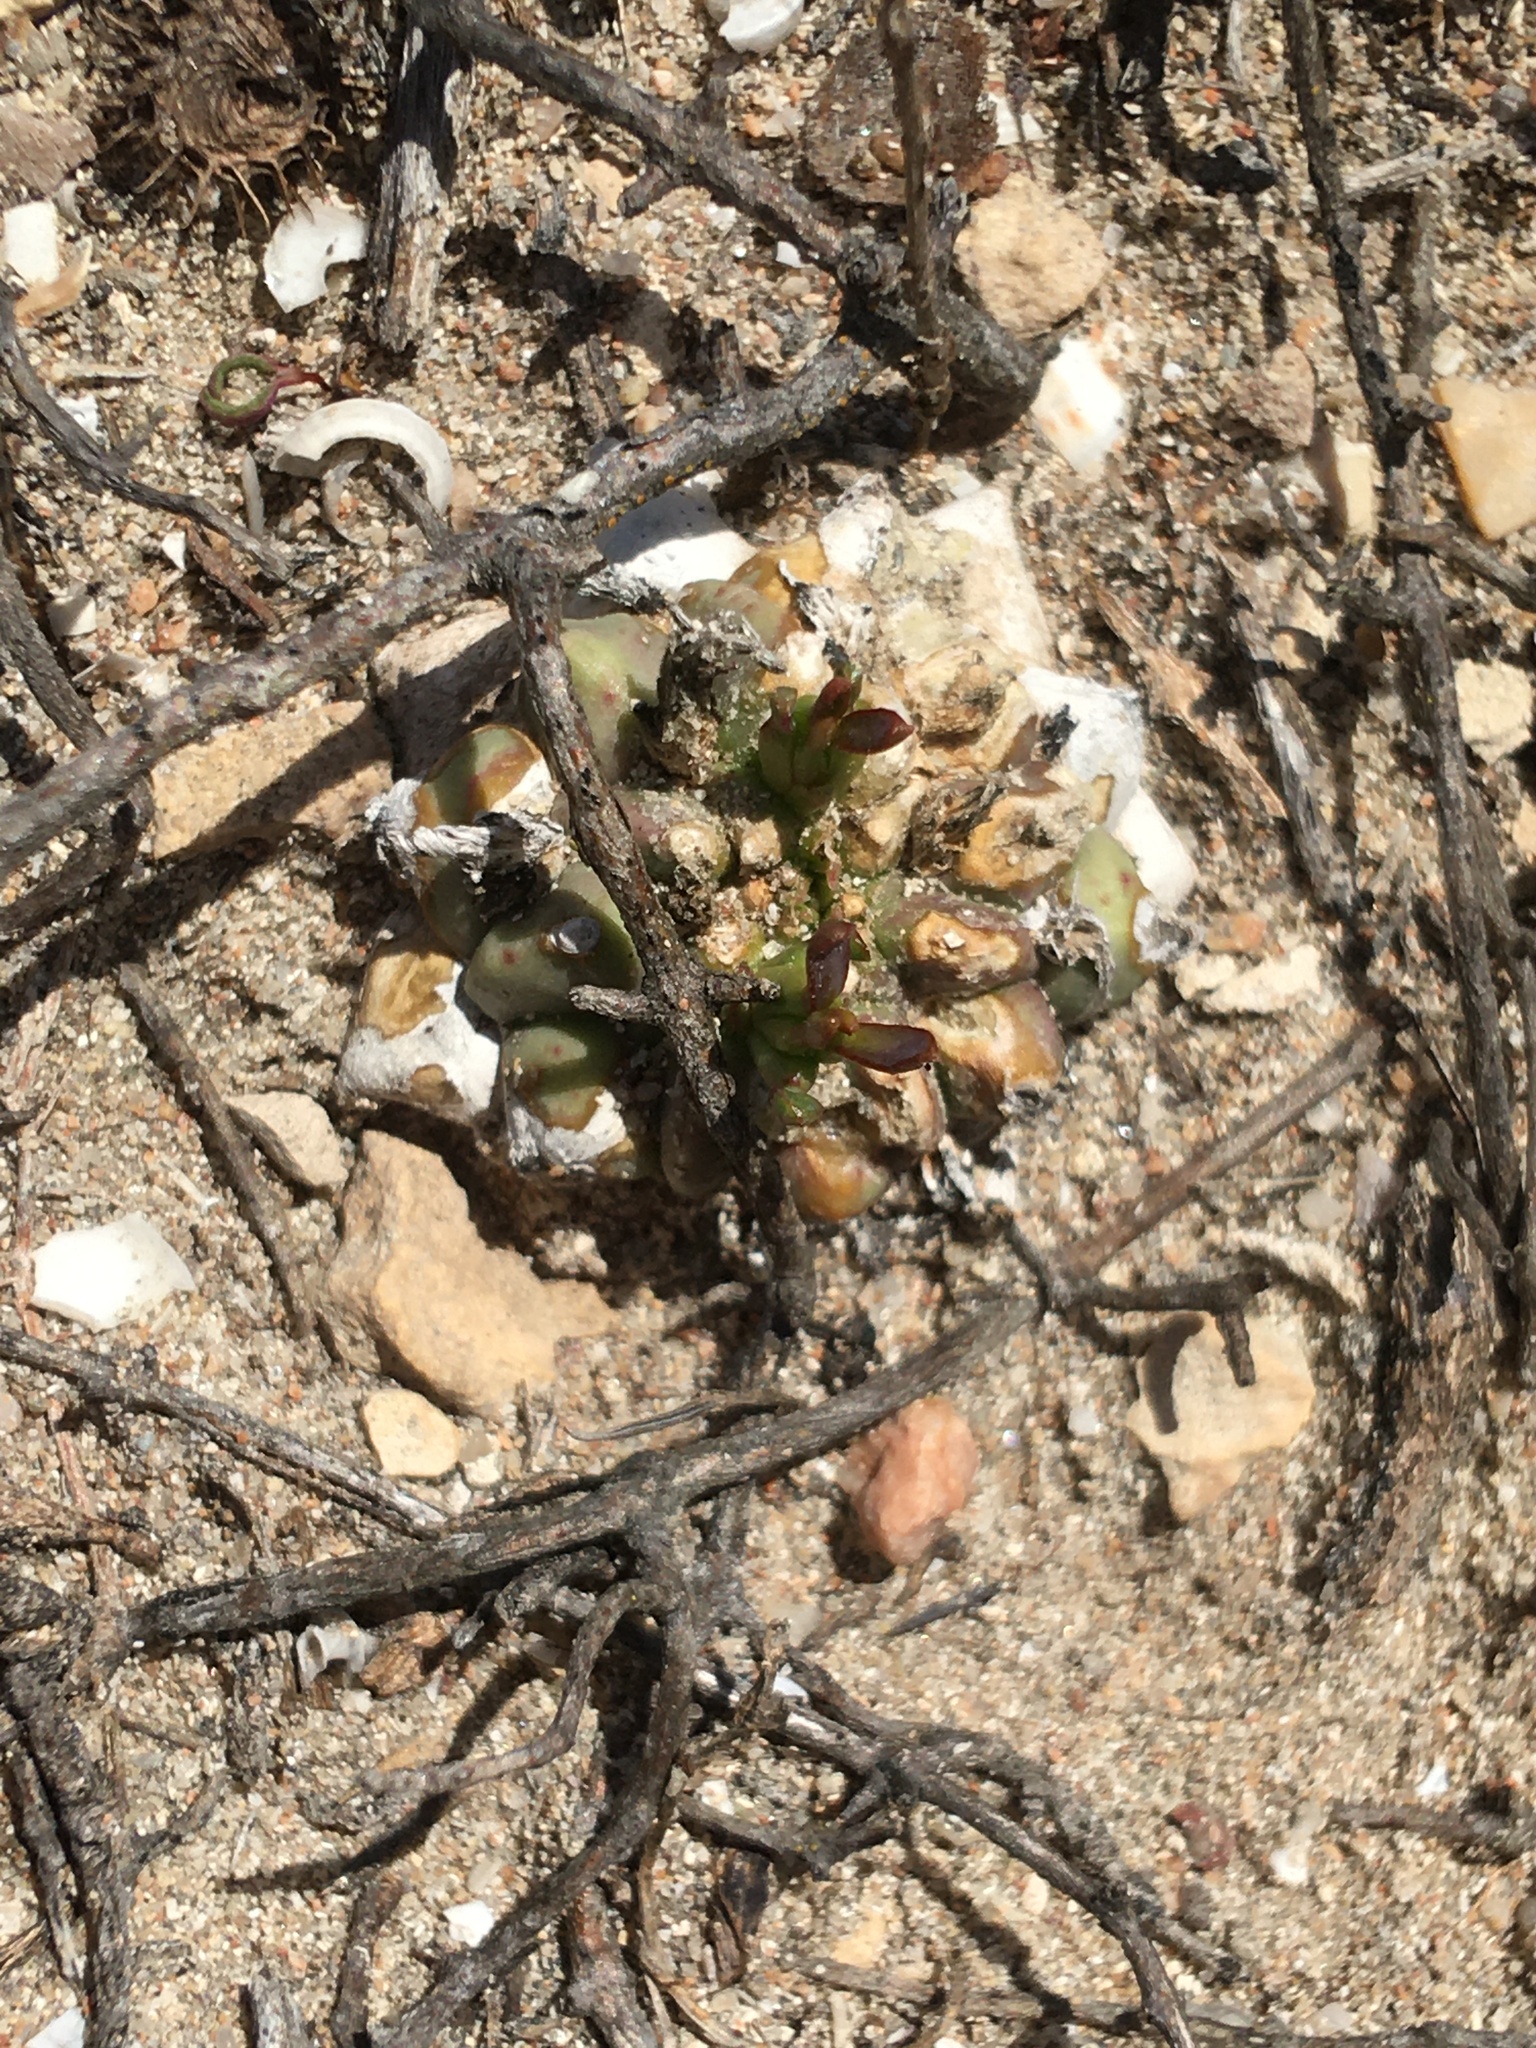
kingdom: Plantae
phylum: Tracheophyta
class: Magnoliopsida
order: Malpighiales
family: Euphorbiaceae
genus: Euphorbia
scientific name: Euphorbia caput-medusae
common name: Medusa's-head
